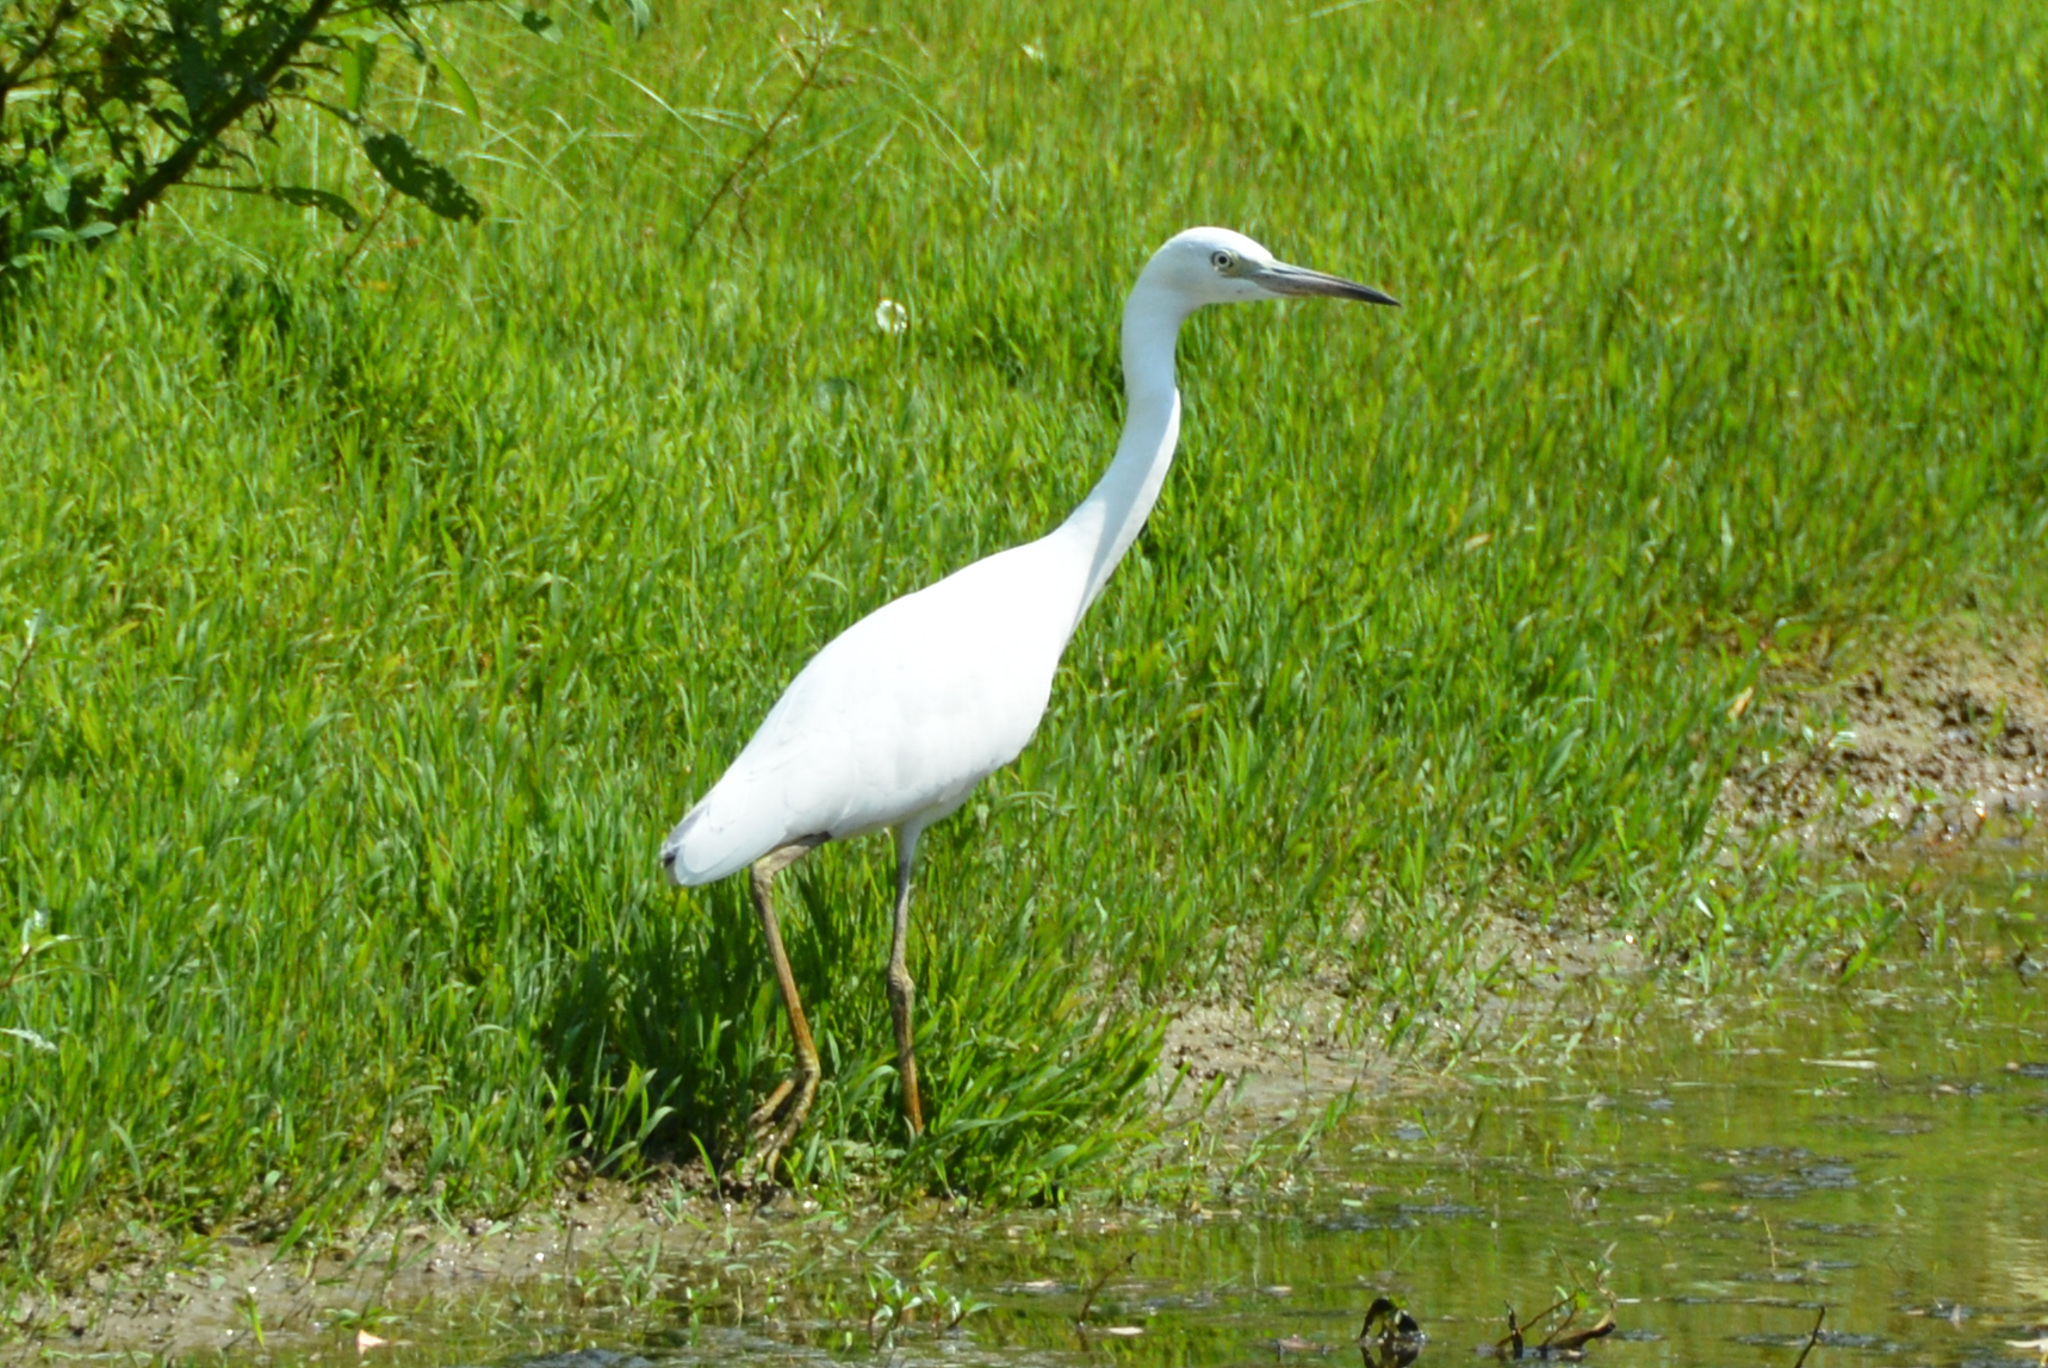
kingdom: Animalia
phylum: Chordata
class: Aves
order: Pelecaniformes
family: Ardeidae
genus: Egretta
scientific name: Egretta caerulea
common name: Little blue heron
